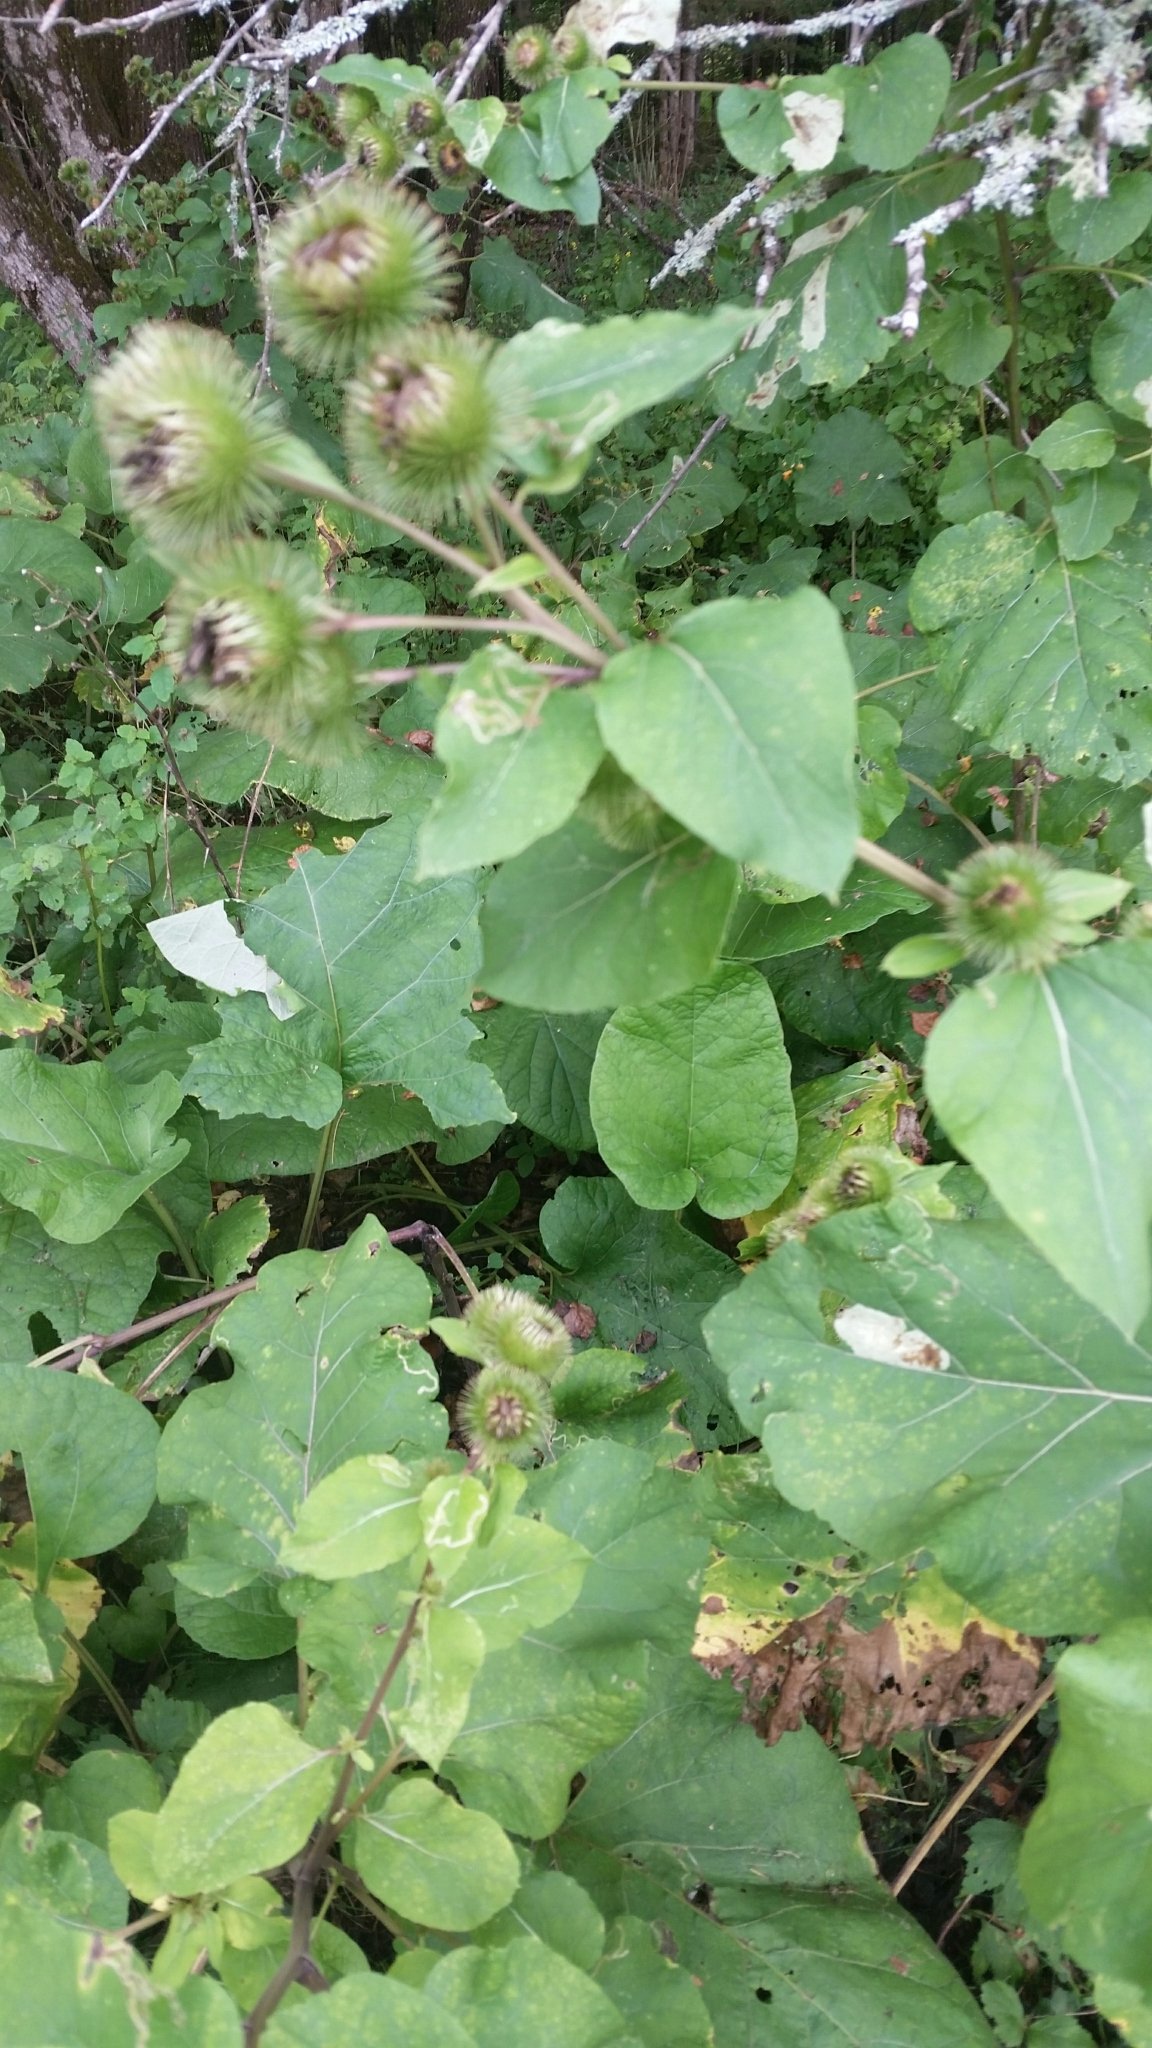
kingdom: Plantae
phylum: Tracheophyta
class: Magnoliopsida
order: Asterales
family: Asteraceae
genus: Arctium
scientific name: Arctium lappa
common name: Greater burdock
